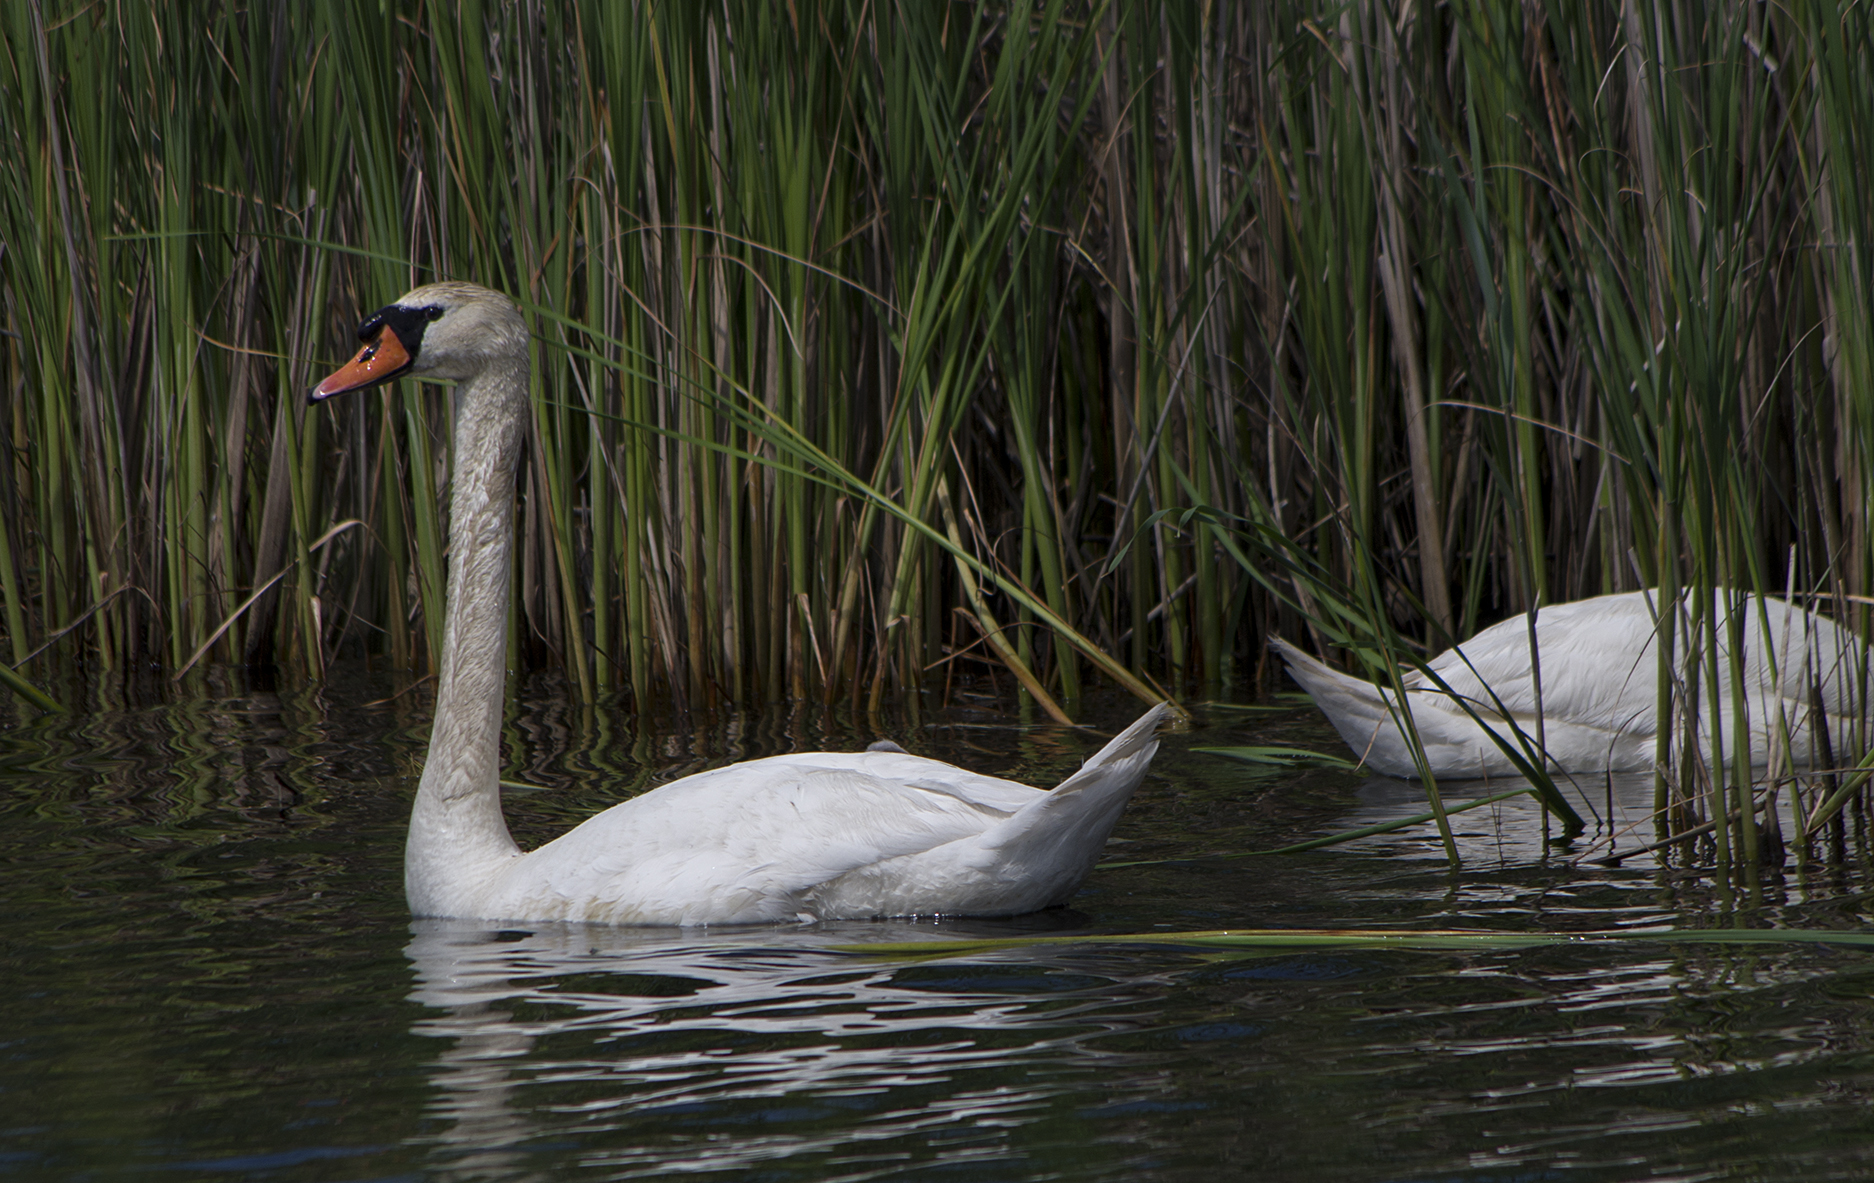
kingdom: Animalia
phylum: Chordata
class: Aves
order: Anseriformes
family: Anatidae
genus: Cygnus
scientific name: Cygnus olor
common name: Mute swan
